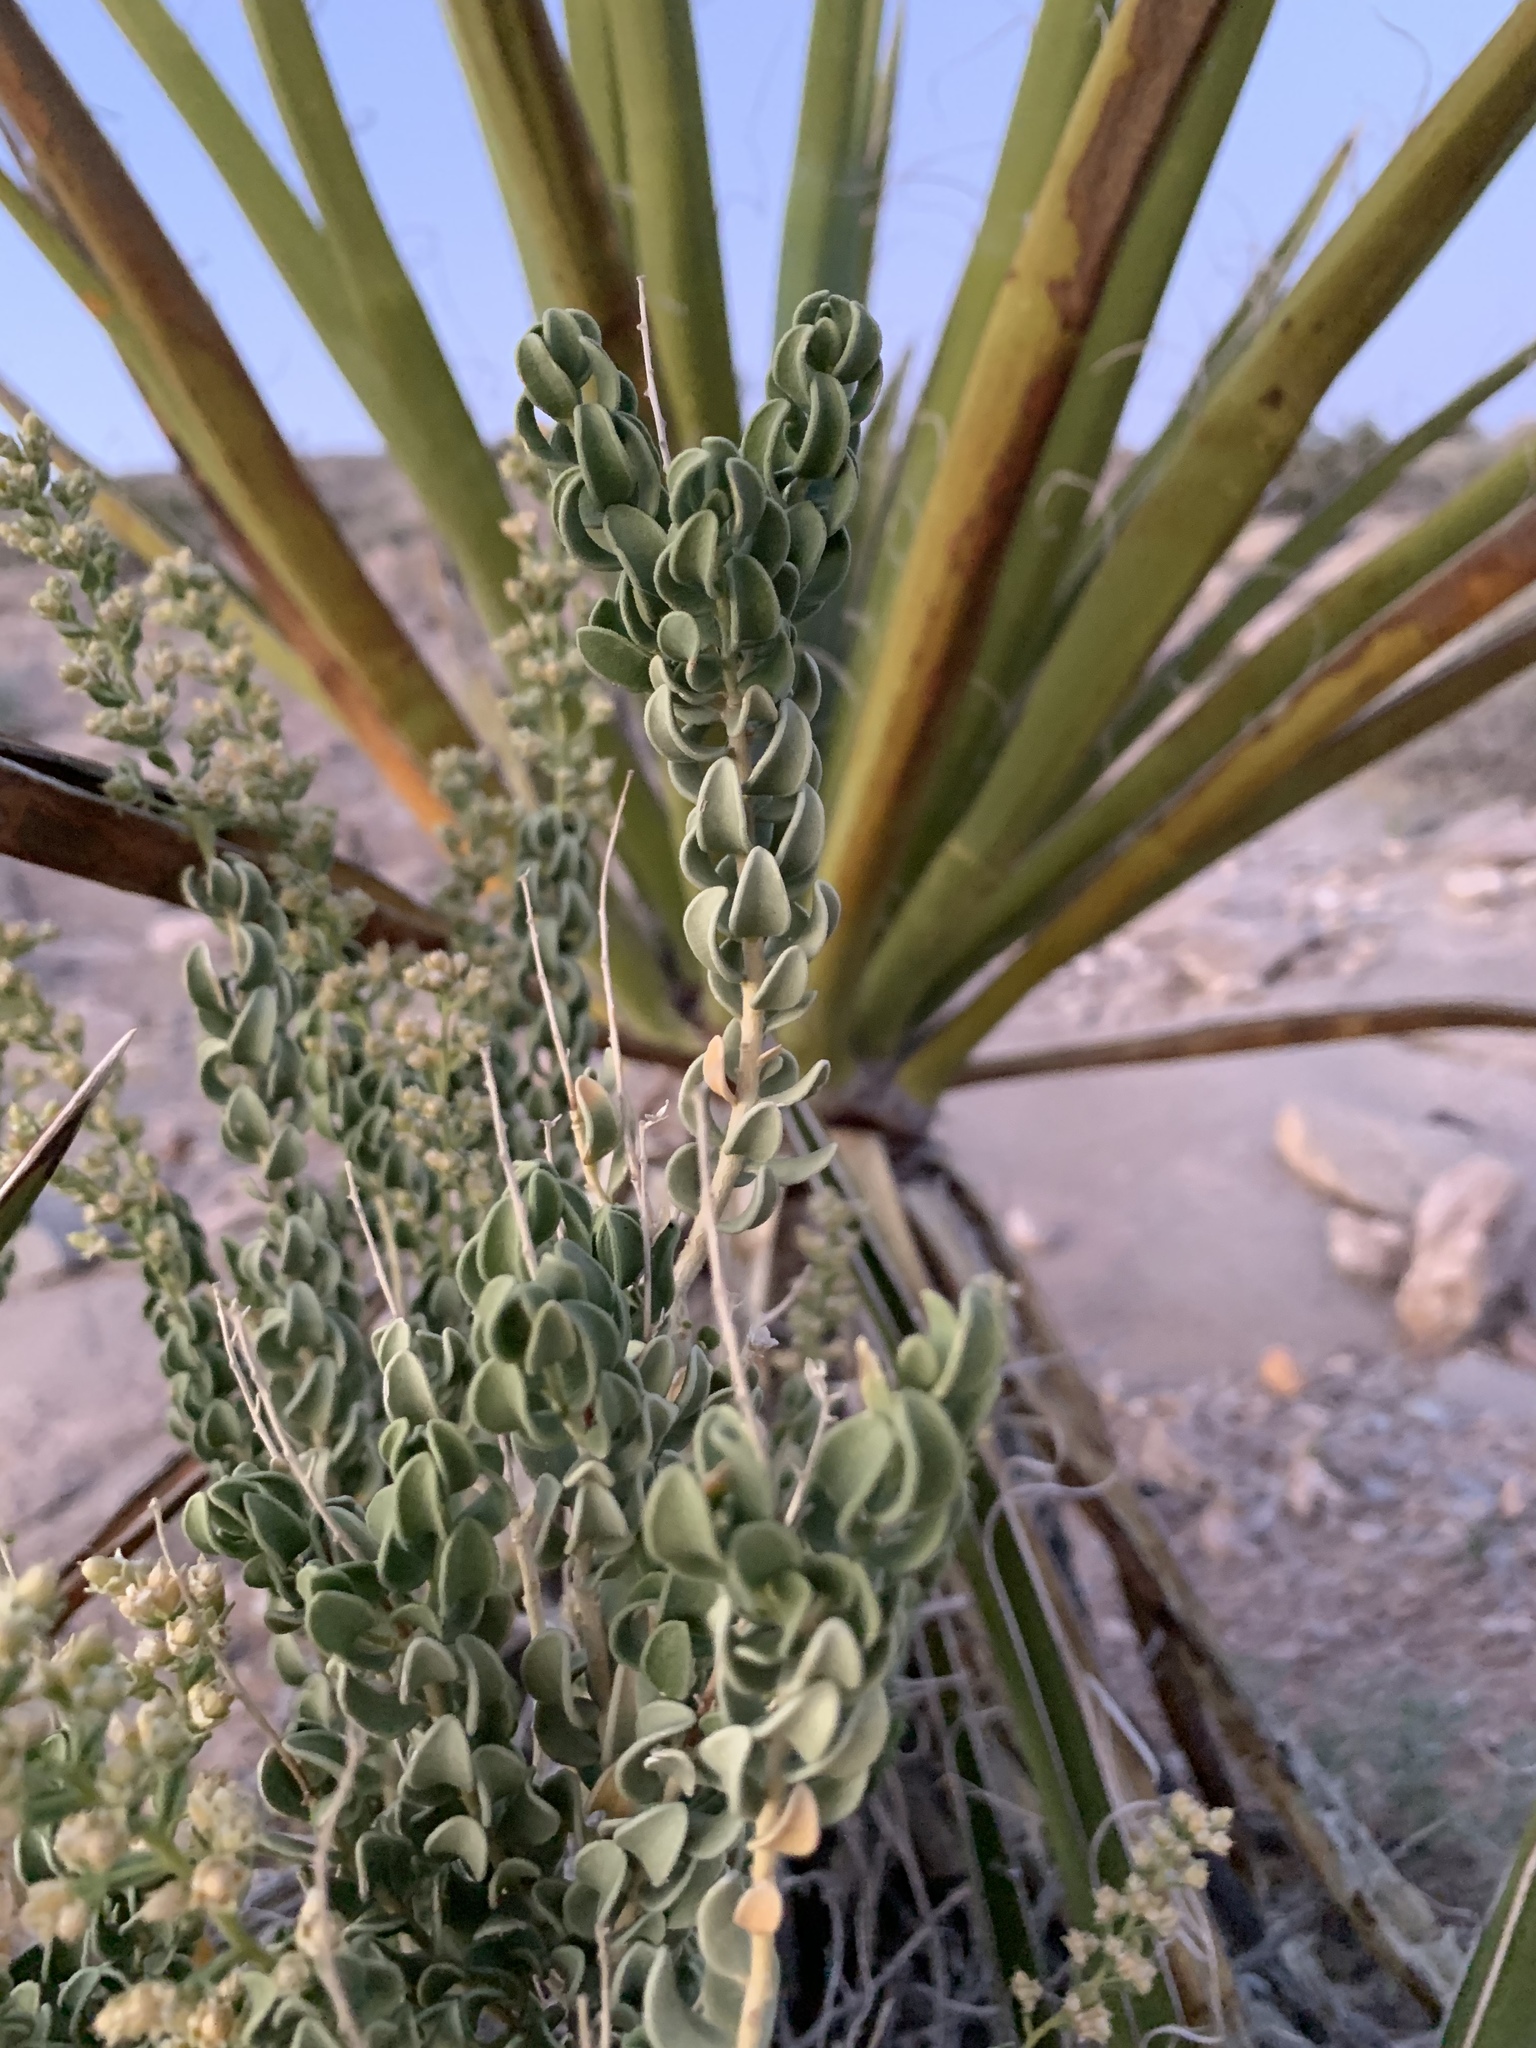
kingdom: Plantae
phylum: Tracheophyta
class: Magnoliopsida
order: Celastrales
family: Celastraceae
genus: Mortonia
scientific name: Mortonia utahensis
